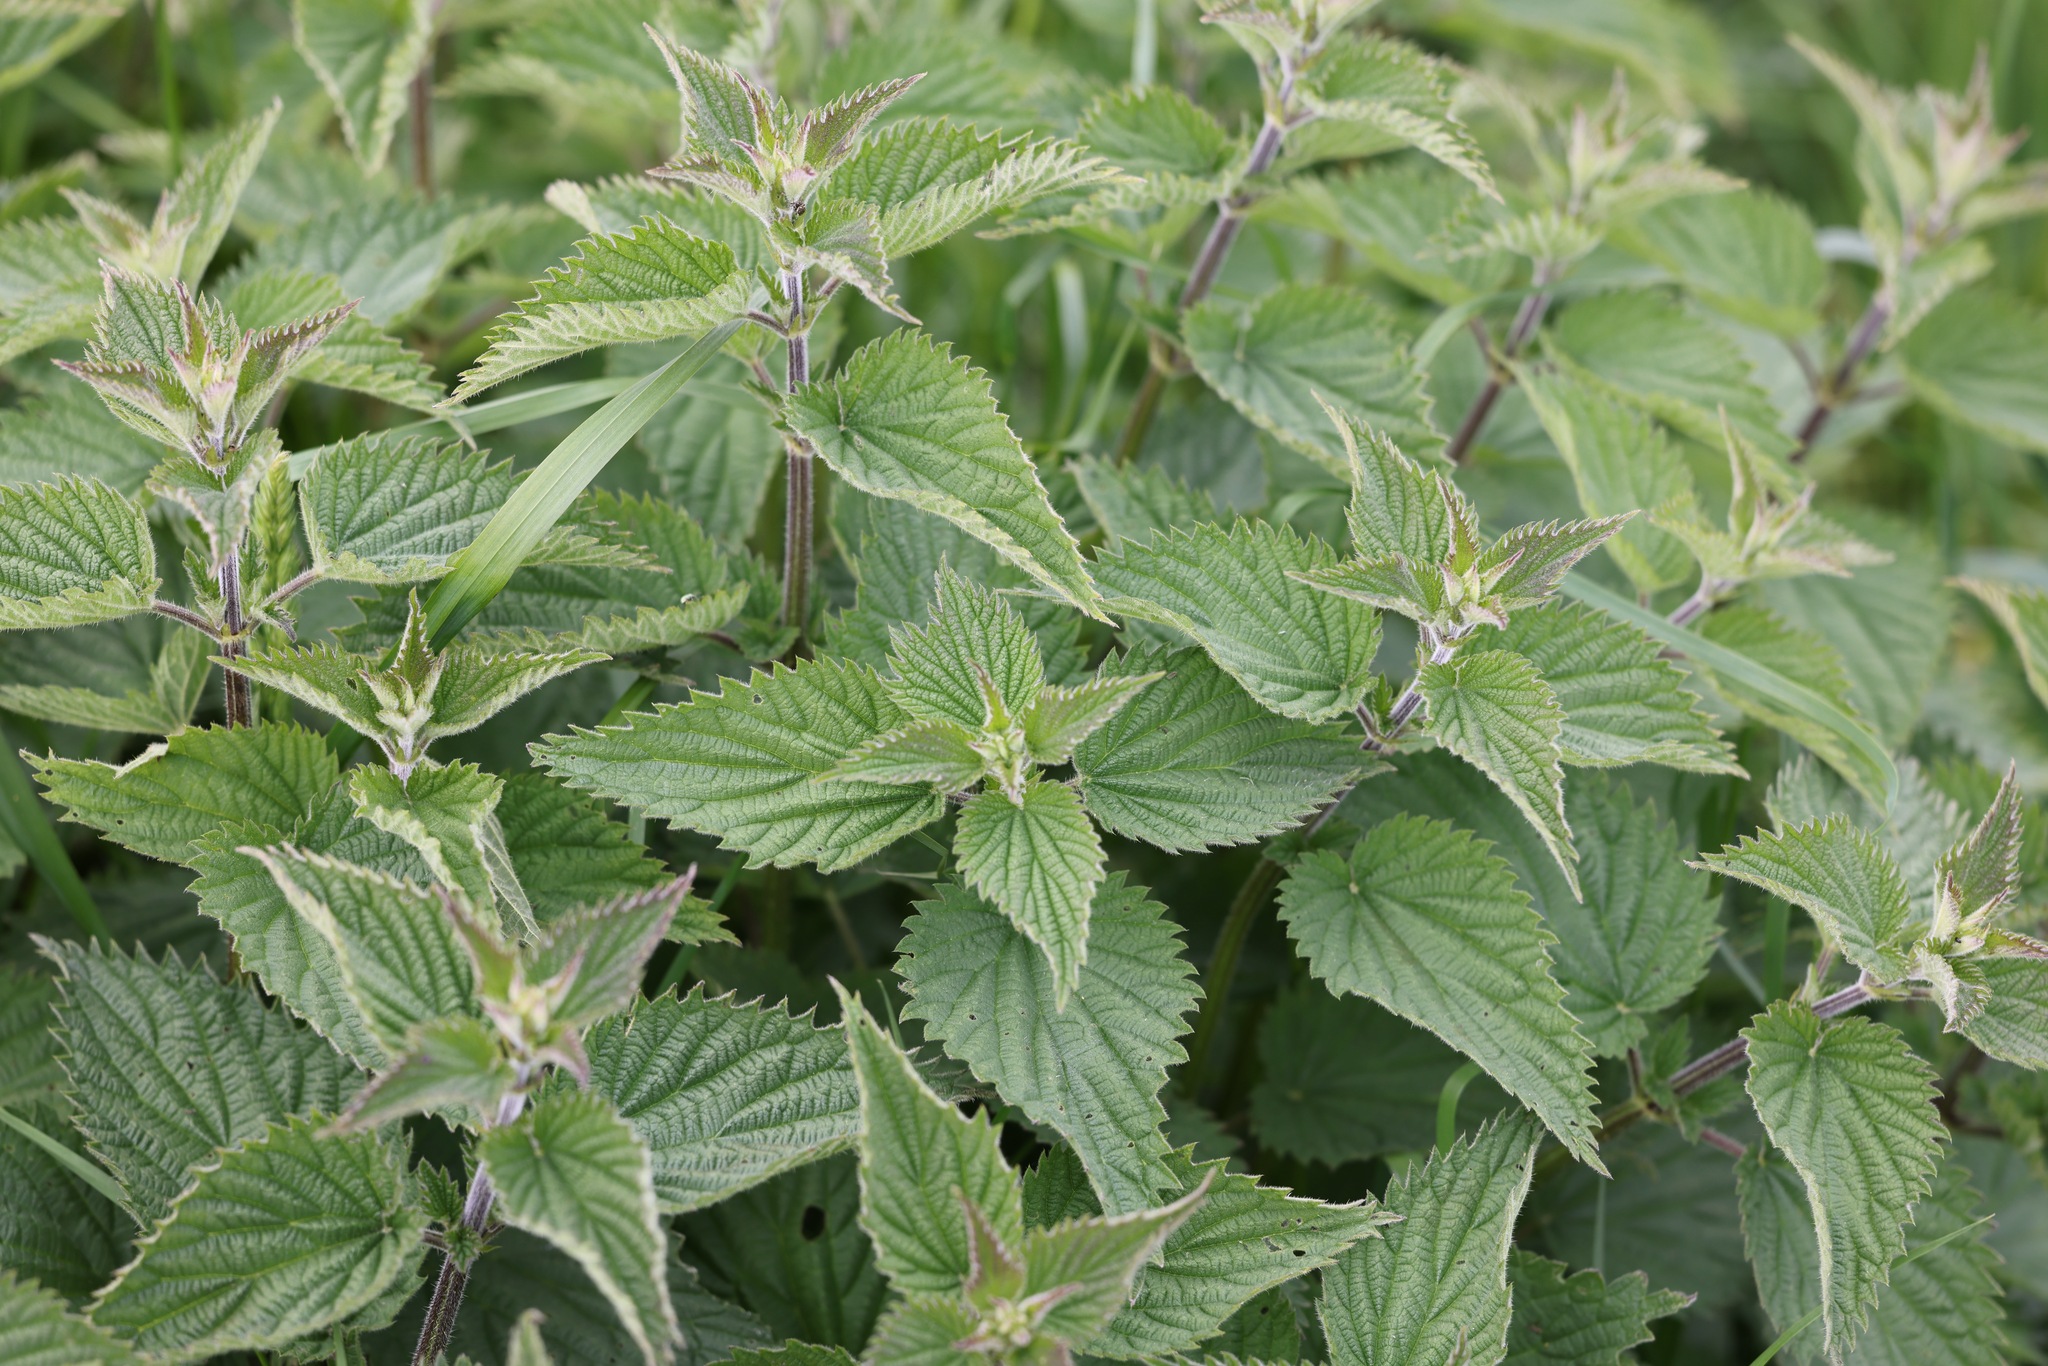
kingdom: Plantae
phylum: Tracheophyta
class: Magnoliopsida
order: Rosales
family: Urticaceae
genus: Urtica
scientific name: Urtica dioica
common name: Common nettle
